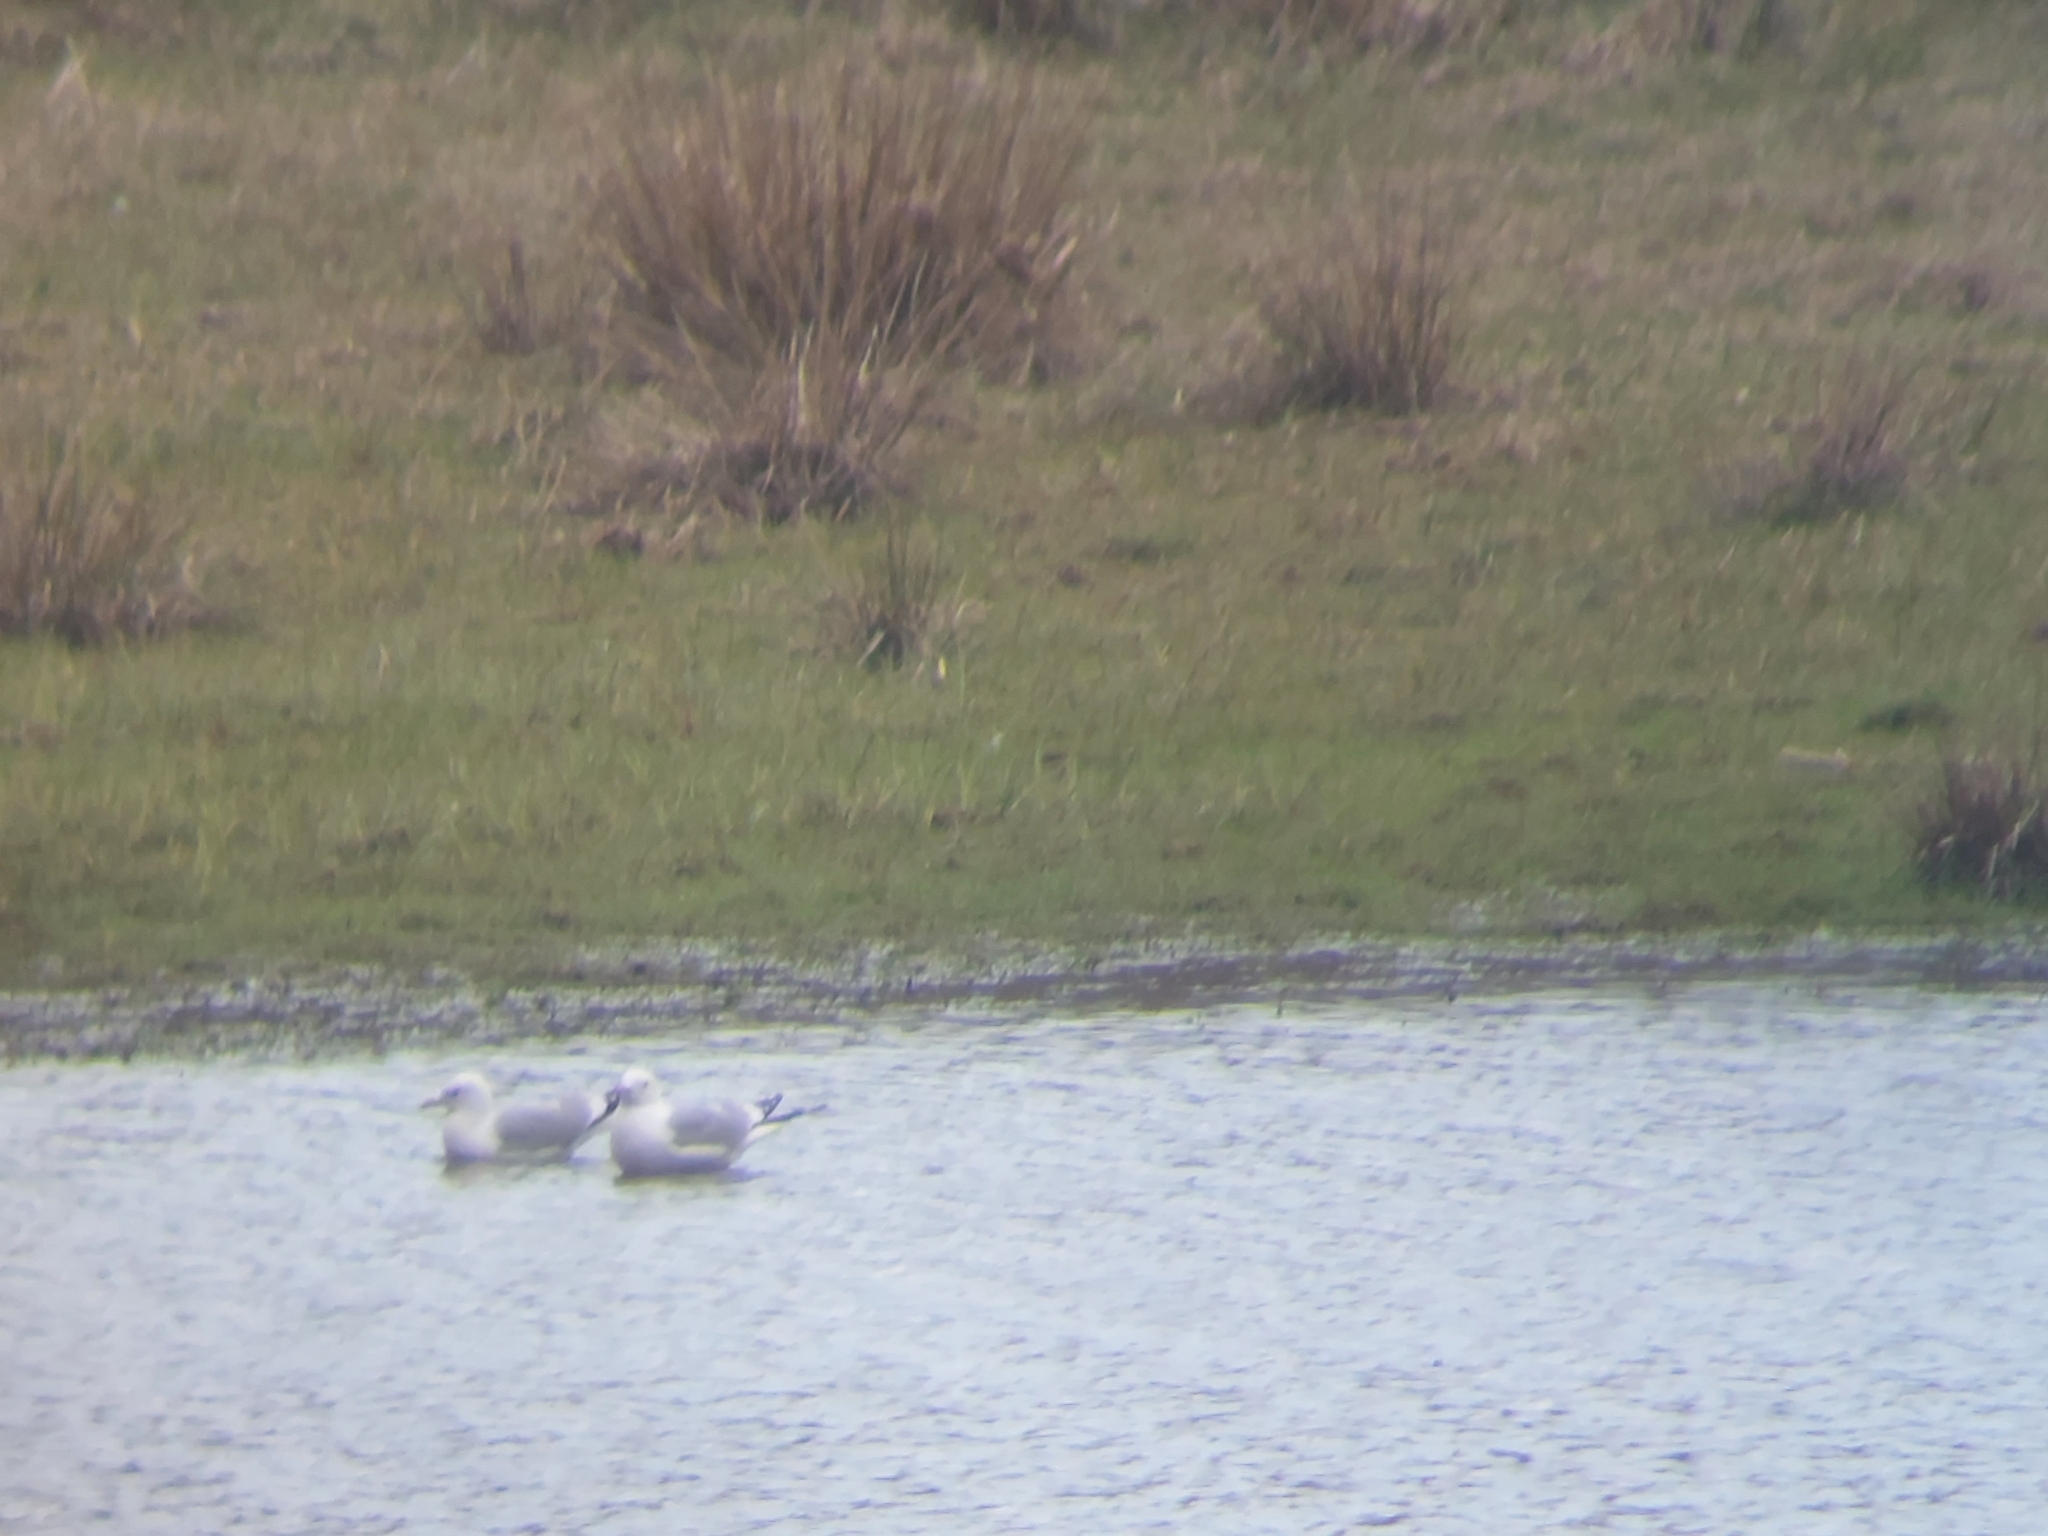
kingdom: Animalia
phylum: Chordata
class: Aves
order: Charadriiformes
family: Laridae
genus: Larus
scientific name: Larus canus
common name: Mew gull
